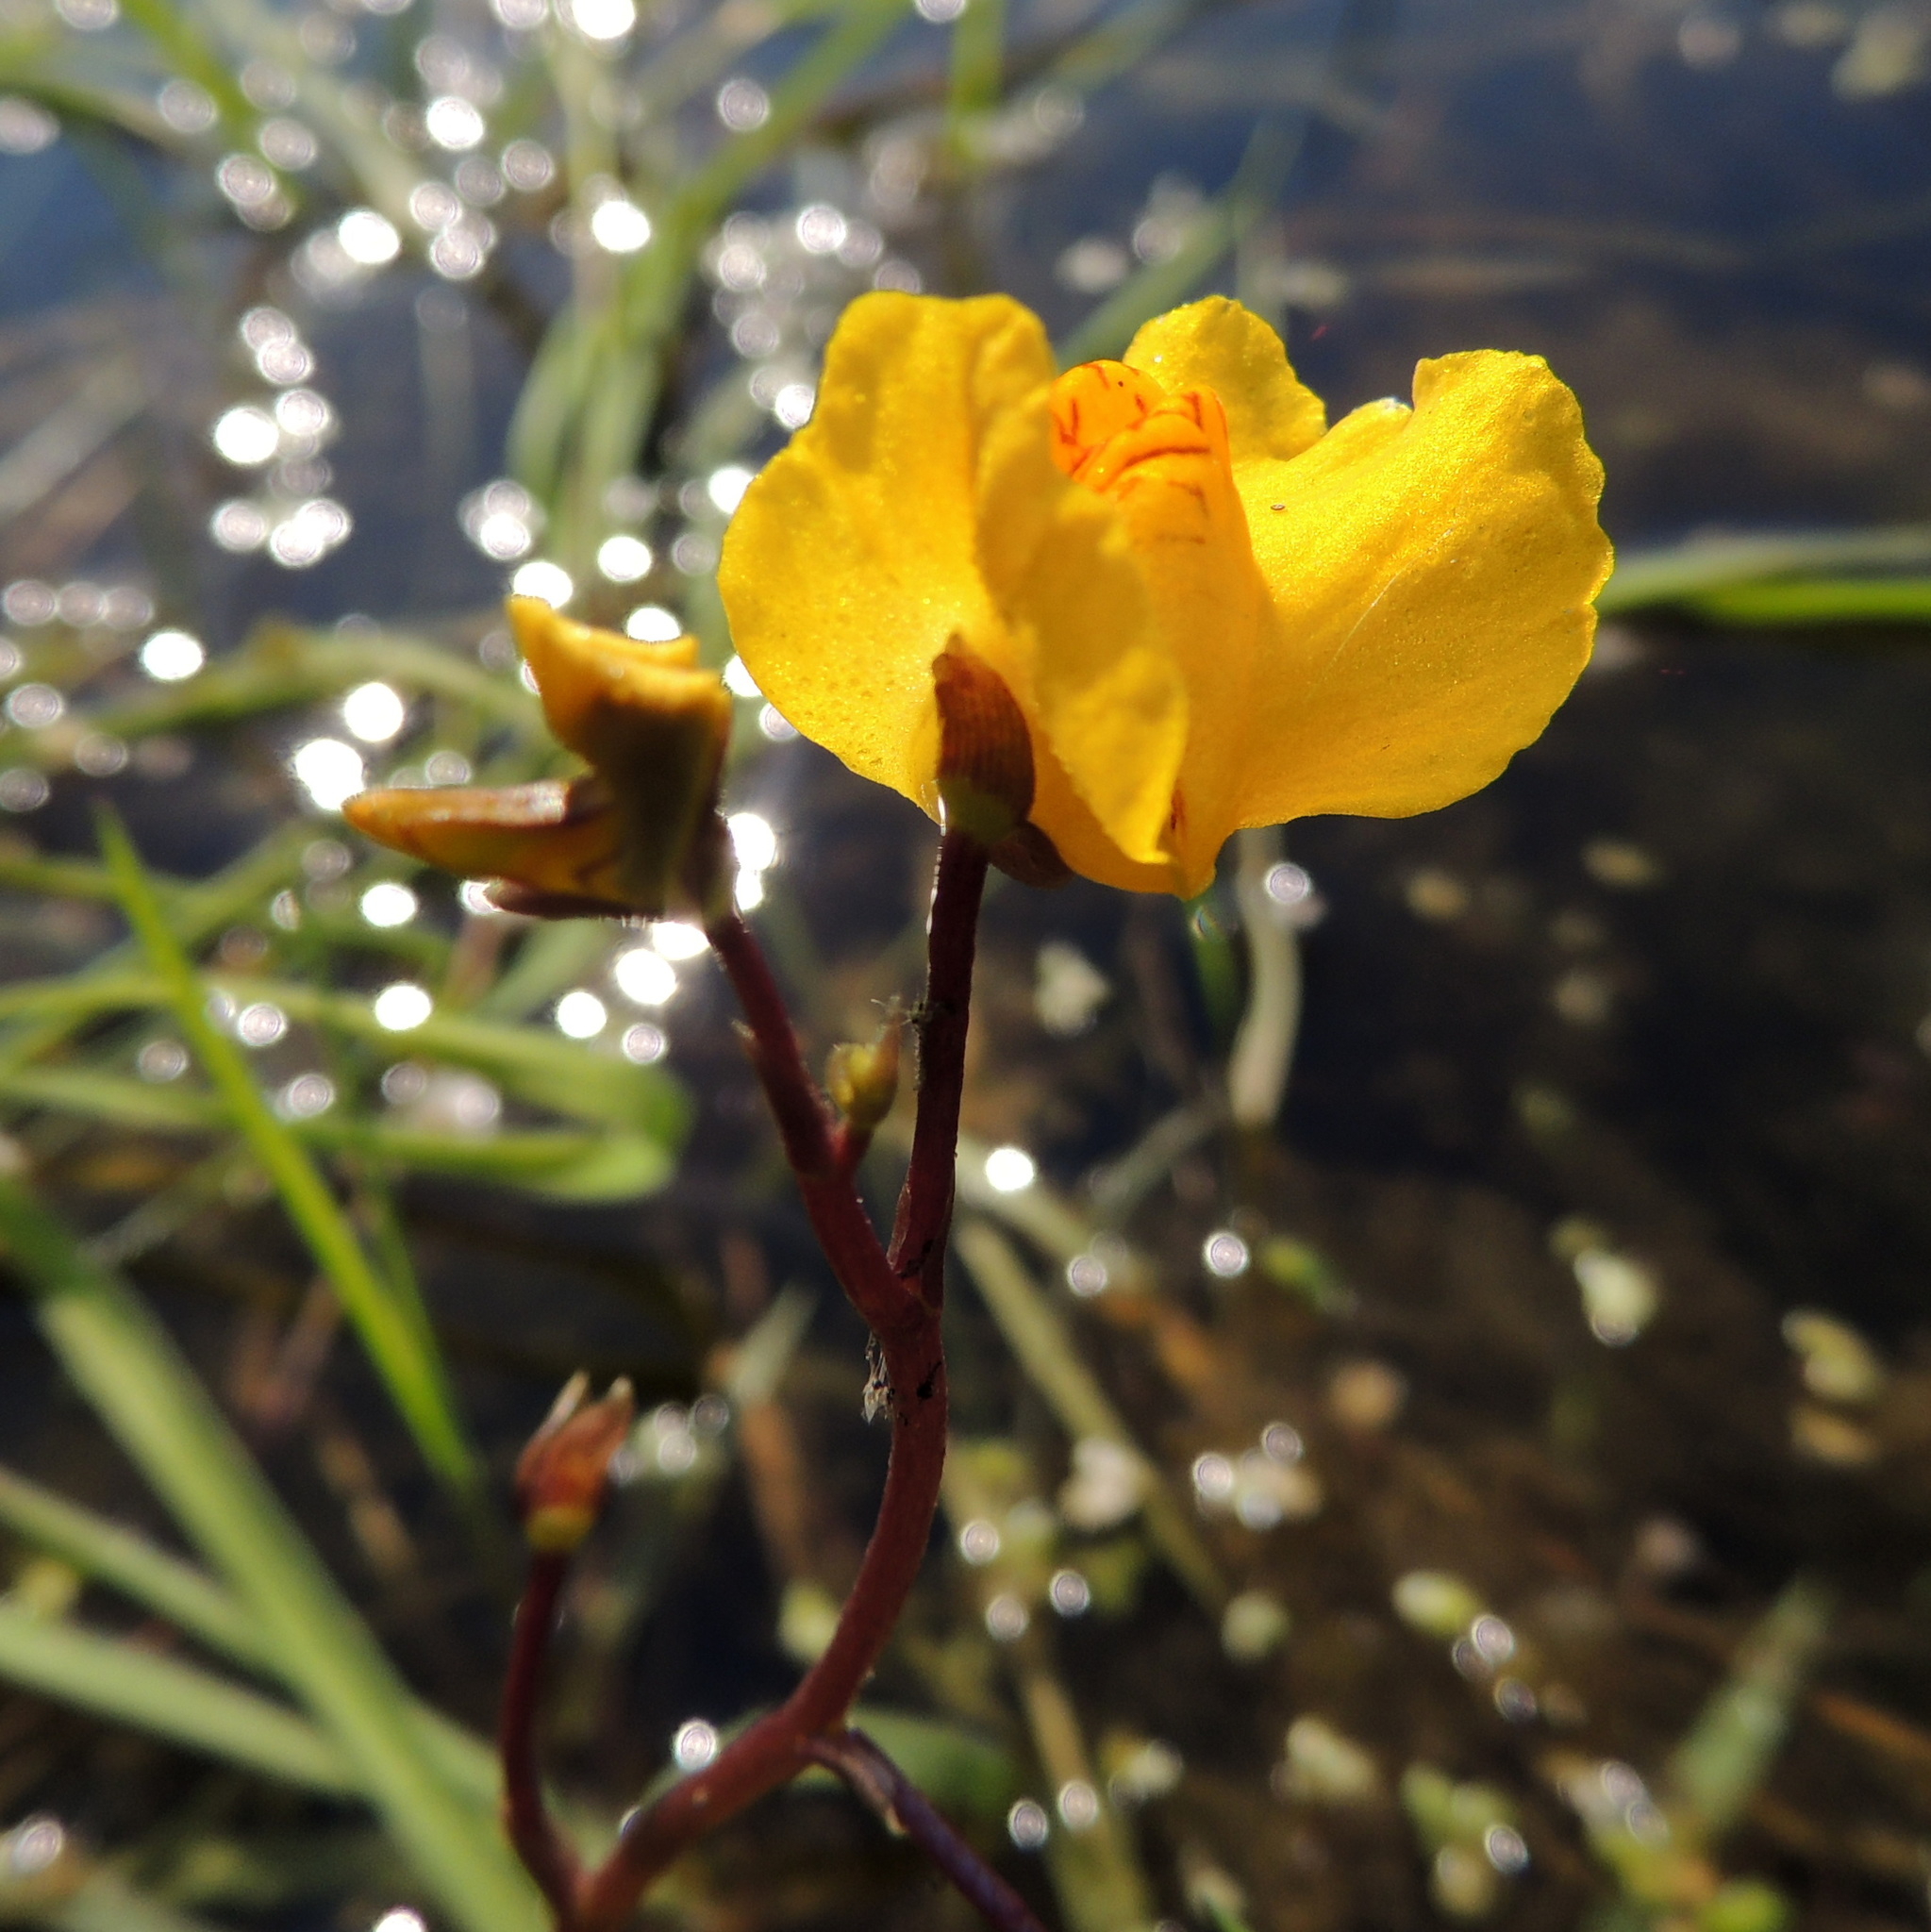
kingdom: Plantae
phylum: Tracheophyta
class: Magnoliopsida
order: Lamiales
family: Lentibulariaceae
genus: Utricularia
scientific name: Utricularia vulgaris
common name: Greater bladderwort
